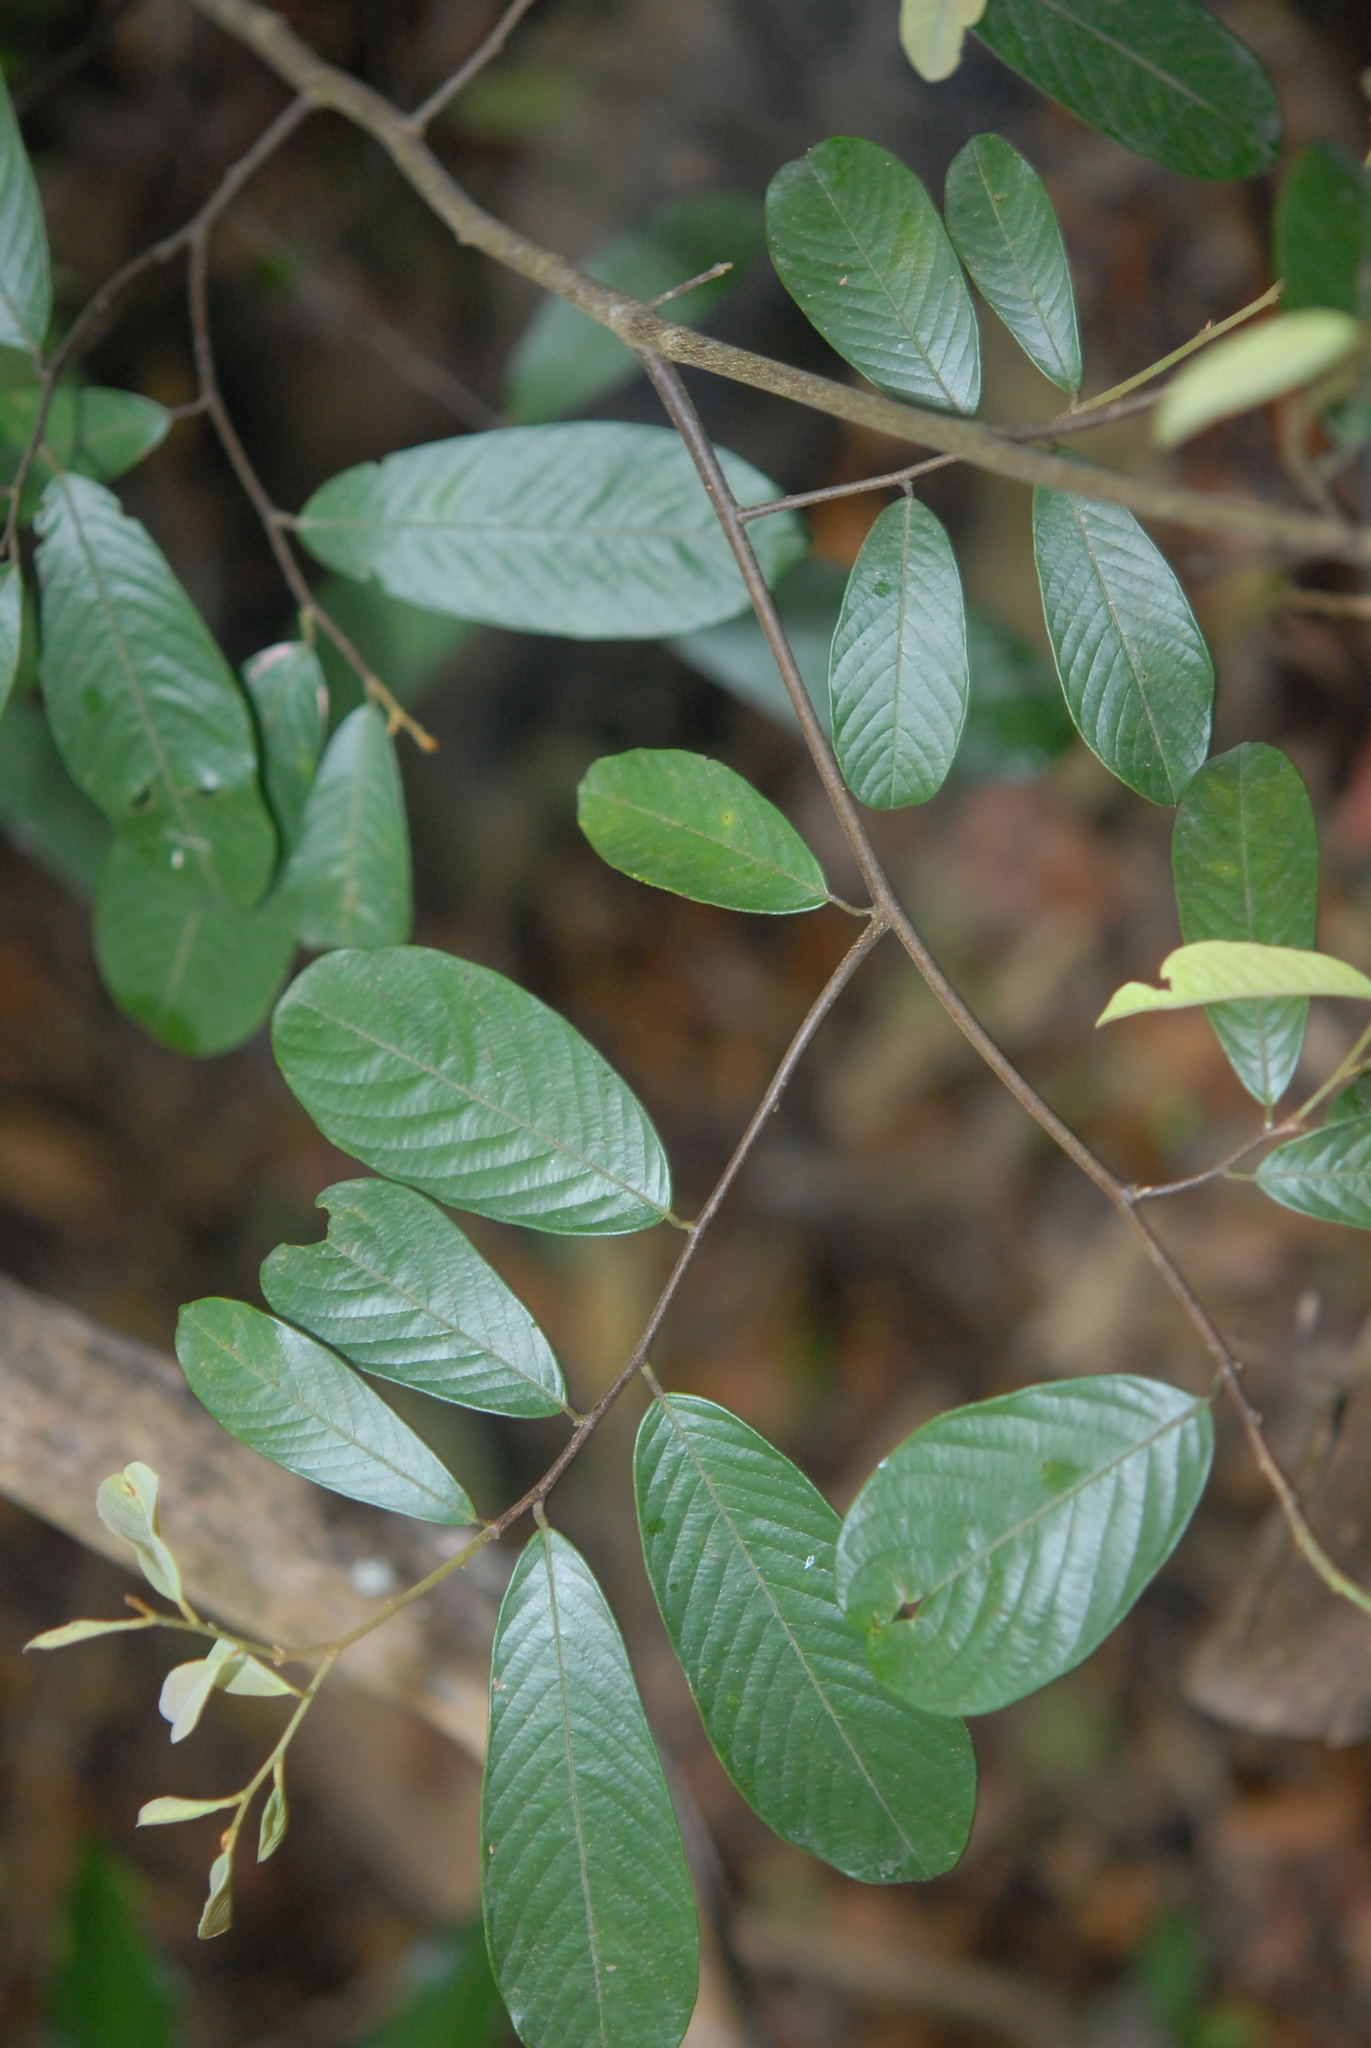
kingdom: Plantae
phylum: Tracheophyta
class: Magnoliopsida
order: Magnoliales
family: Annonaceae
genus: Fissistigma
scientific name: Fissistigma oldhamii
